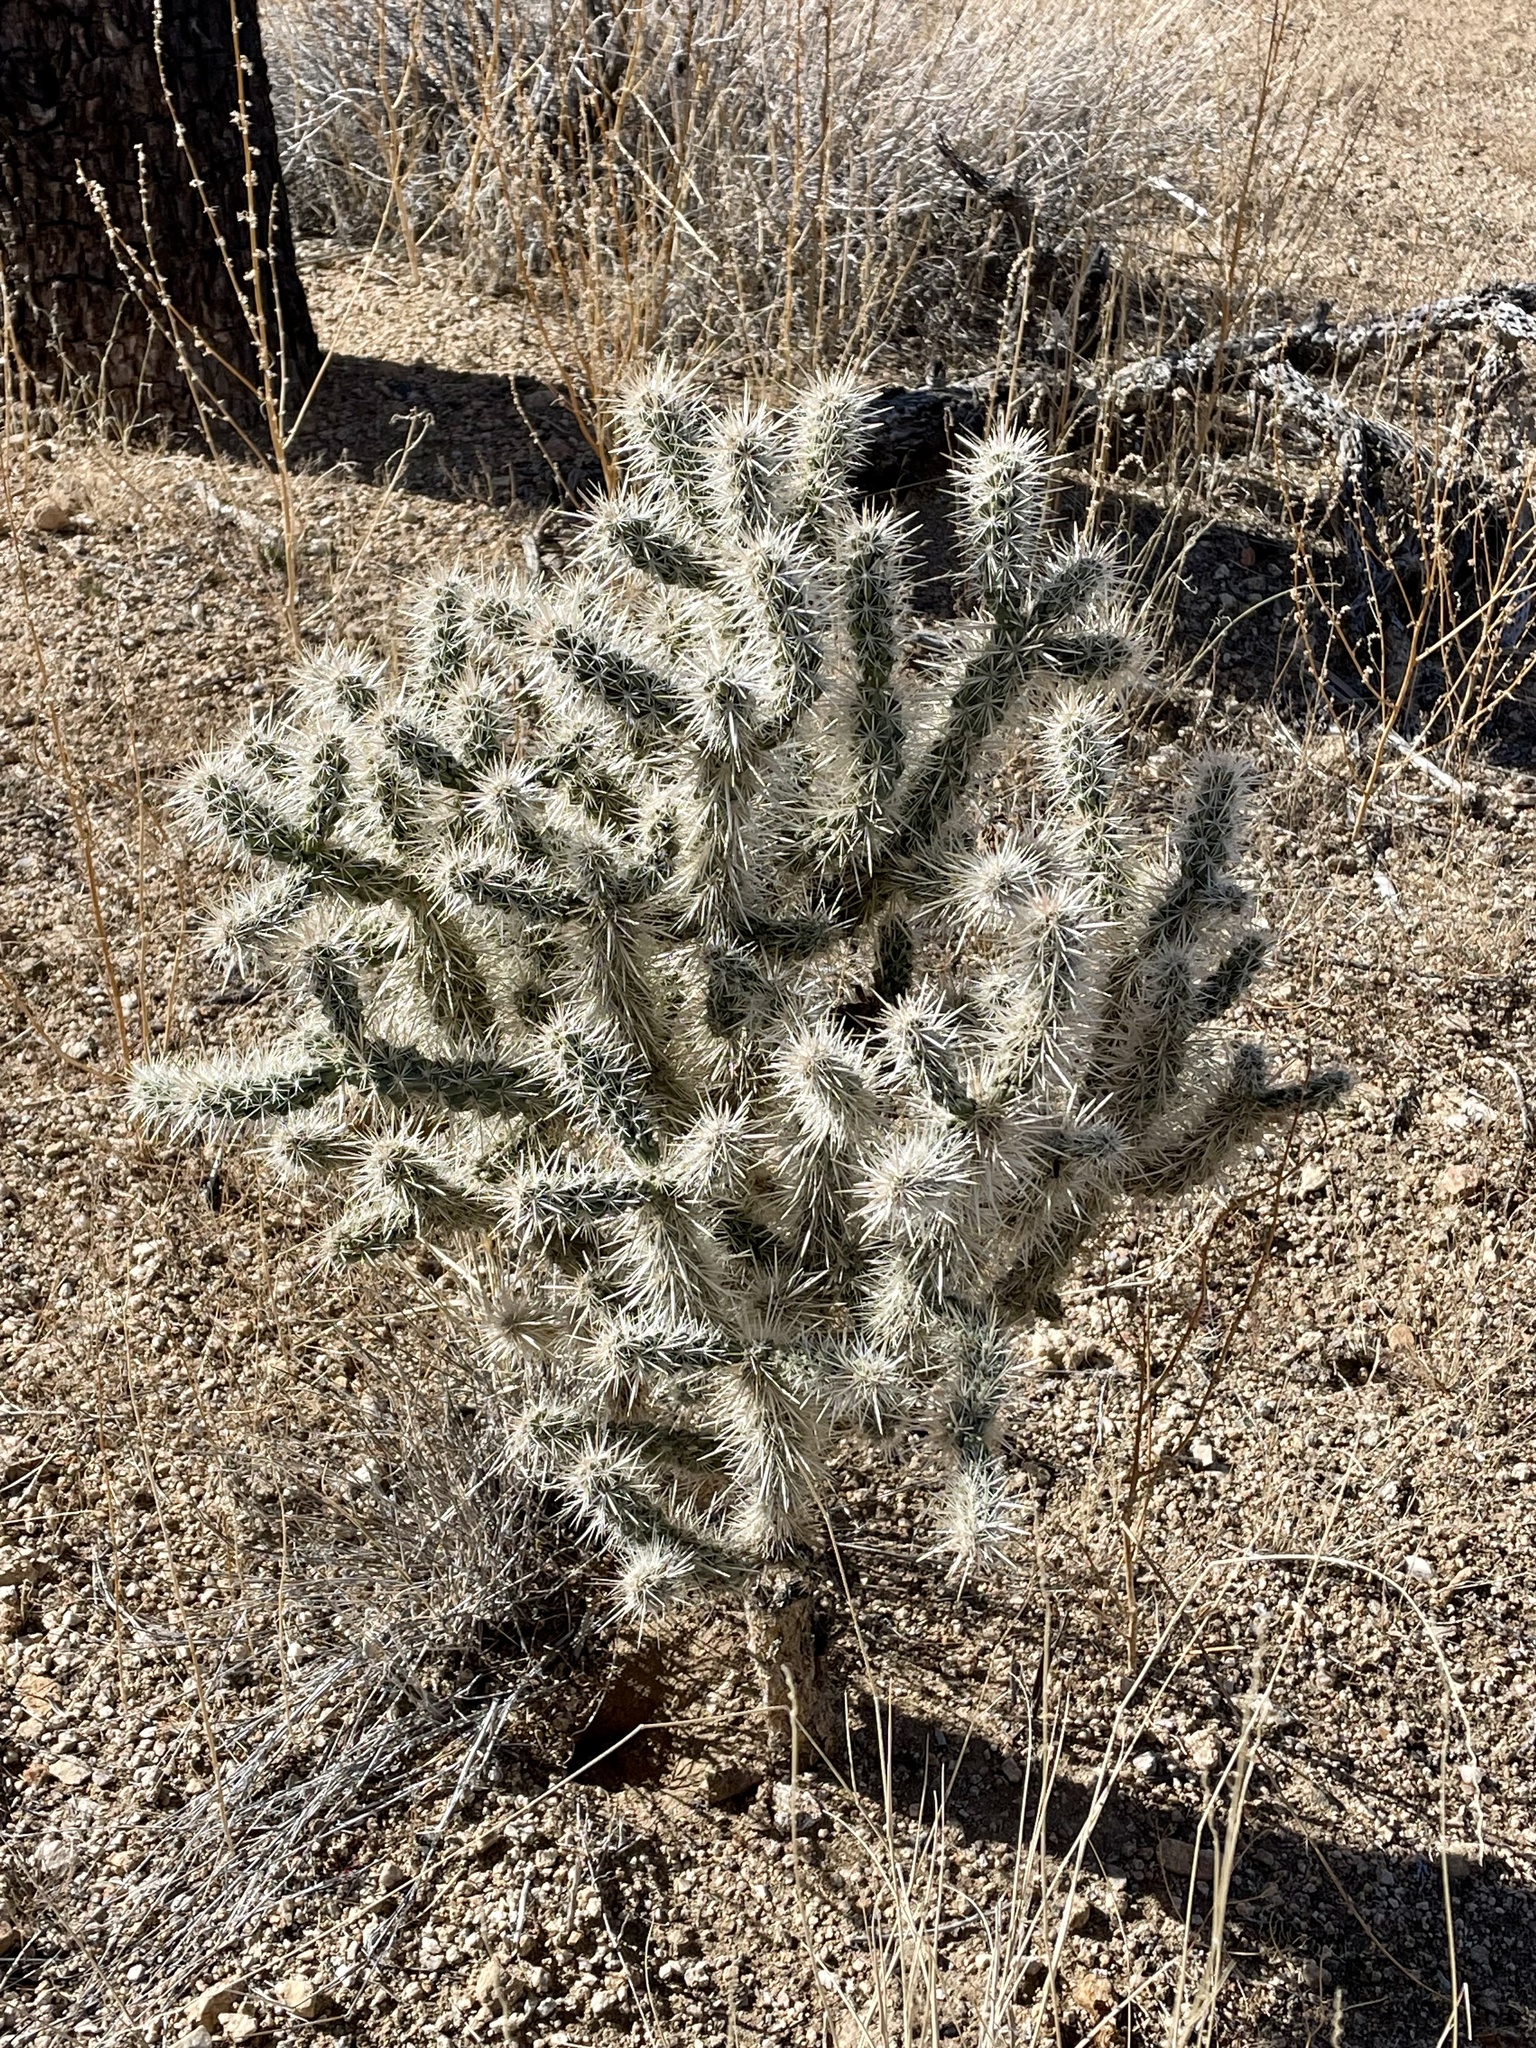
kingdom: Plantae
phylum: Tracheophyta
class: Magnoliopsida
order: Caryophyllales
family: Cactaceae
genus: Cylindropuntia
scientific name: Cylindropuntia echinocarpa
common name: Ground cholla
